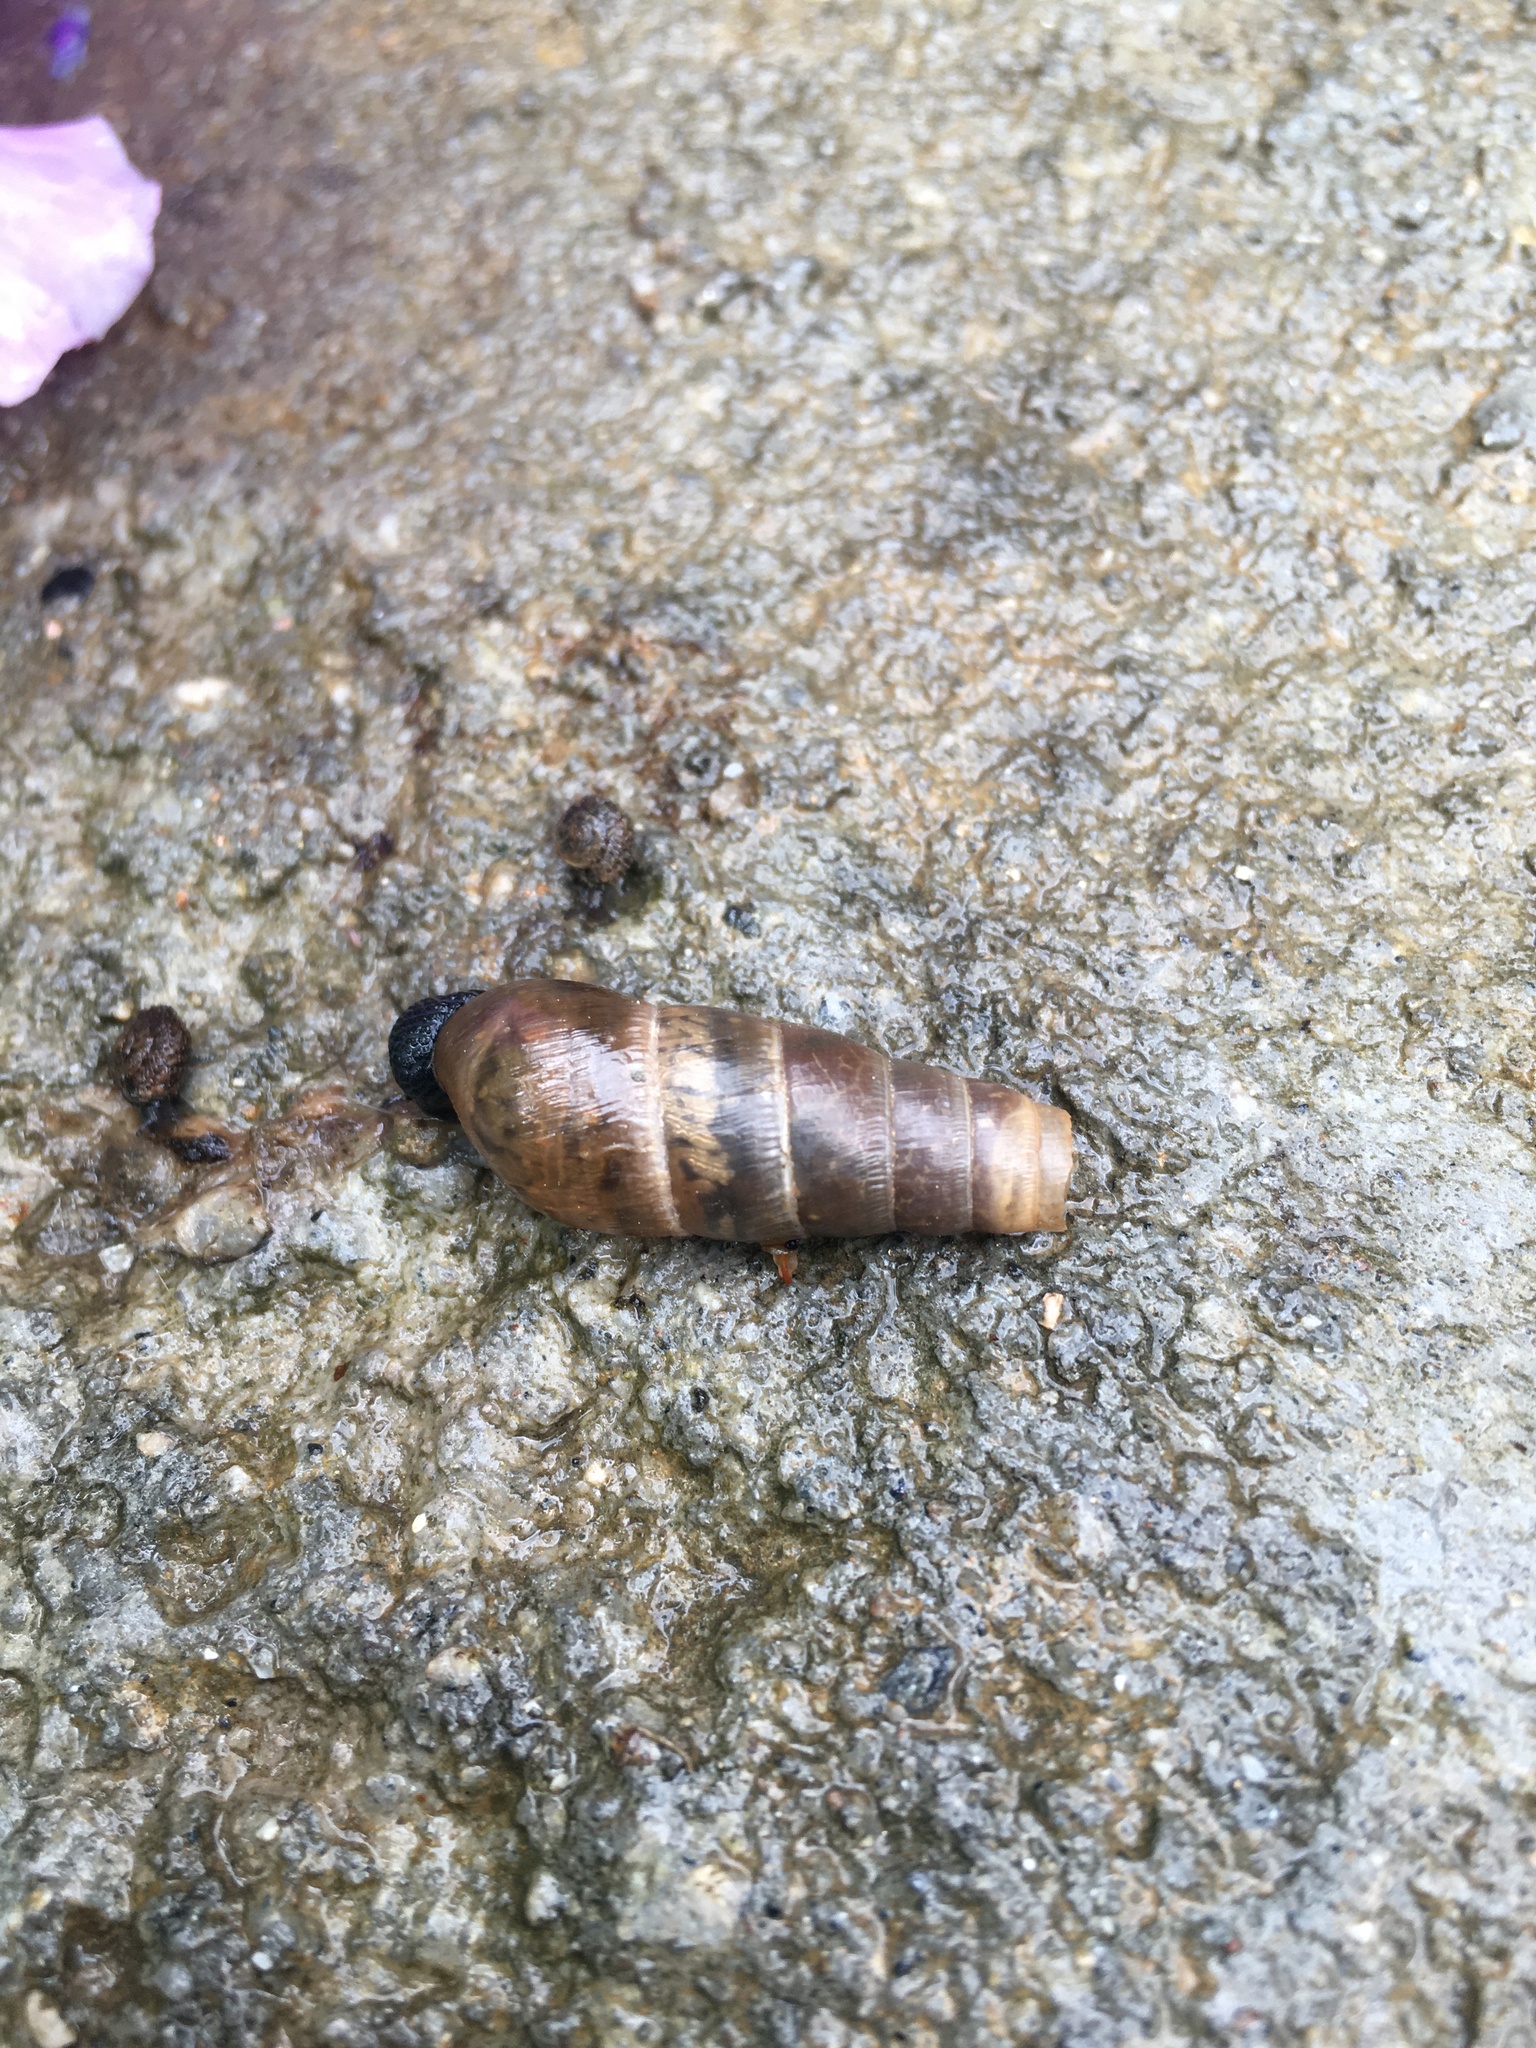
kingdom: Animalia
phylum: Mollusca
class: Gastropoda
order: Stylommatophora
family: Achatinidae
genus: Rumina
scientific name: Rumina decollata
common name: Decollate snail
